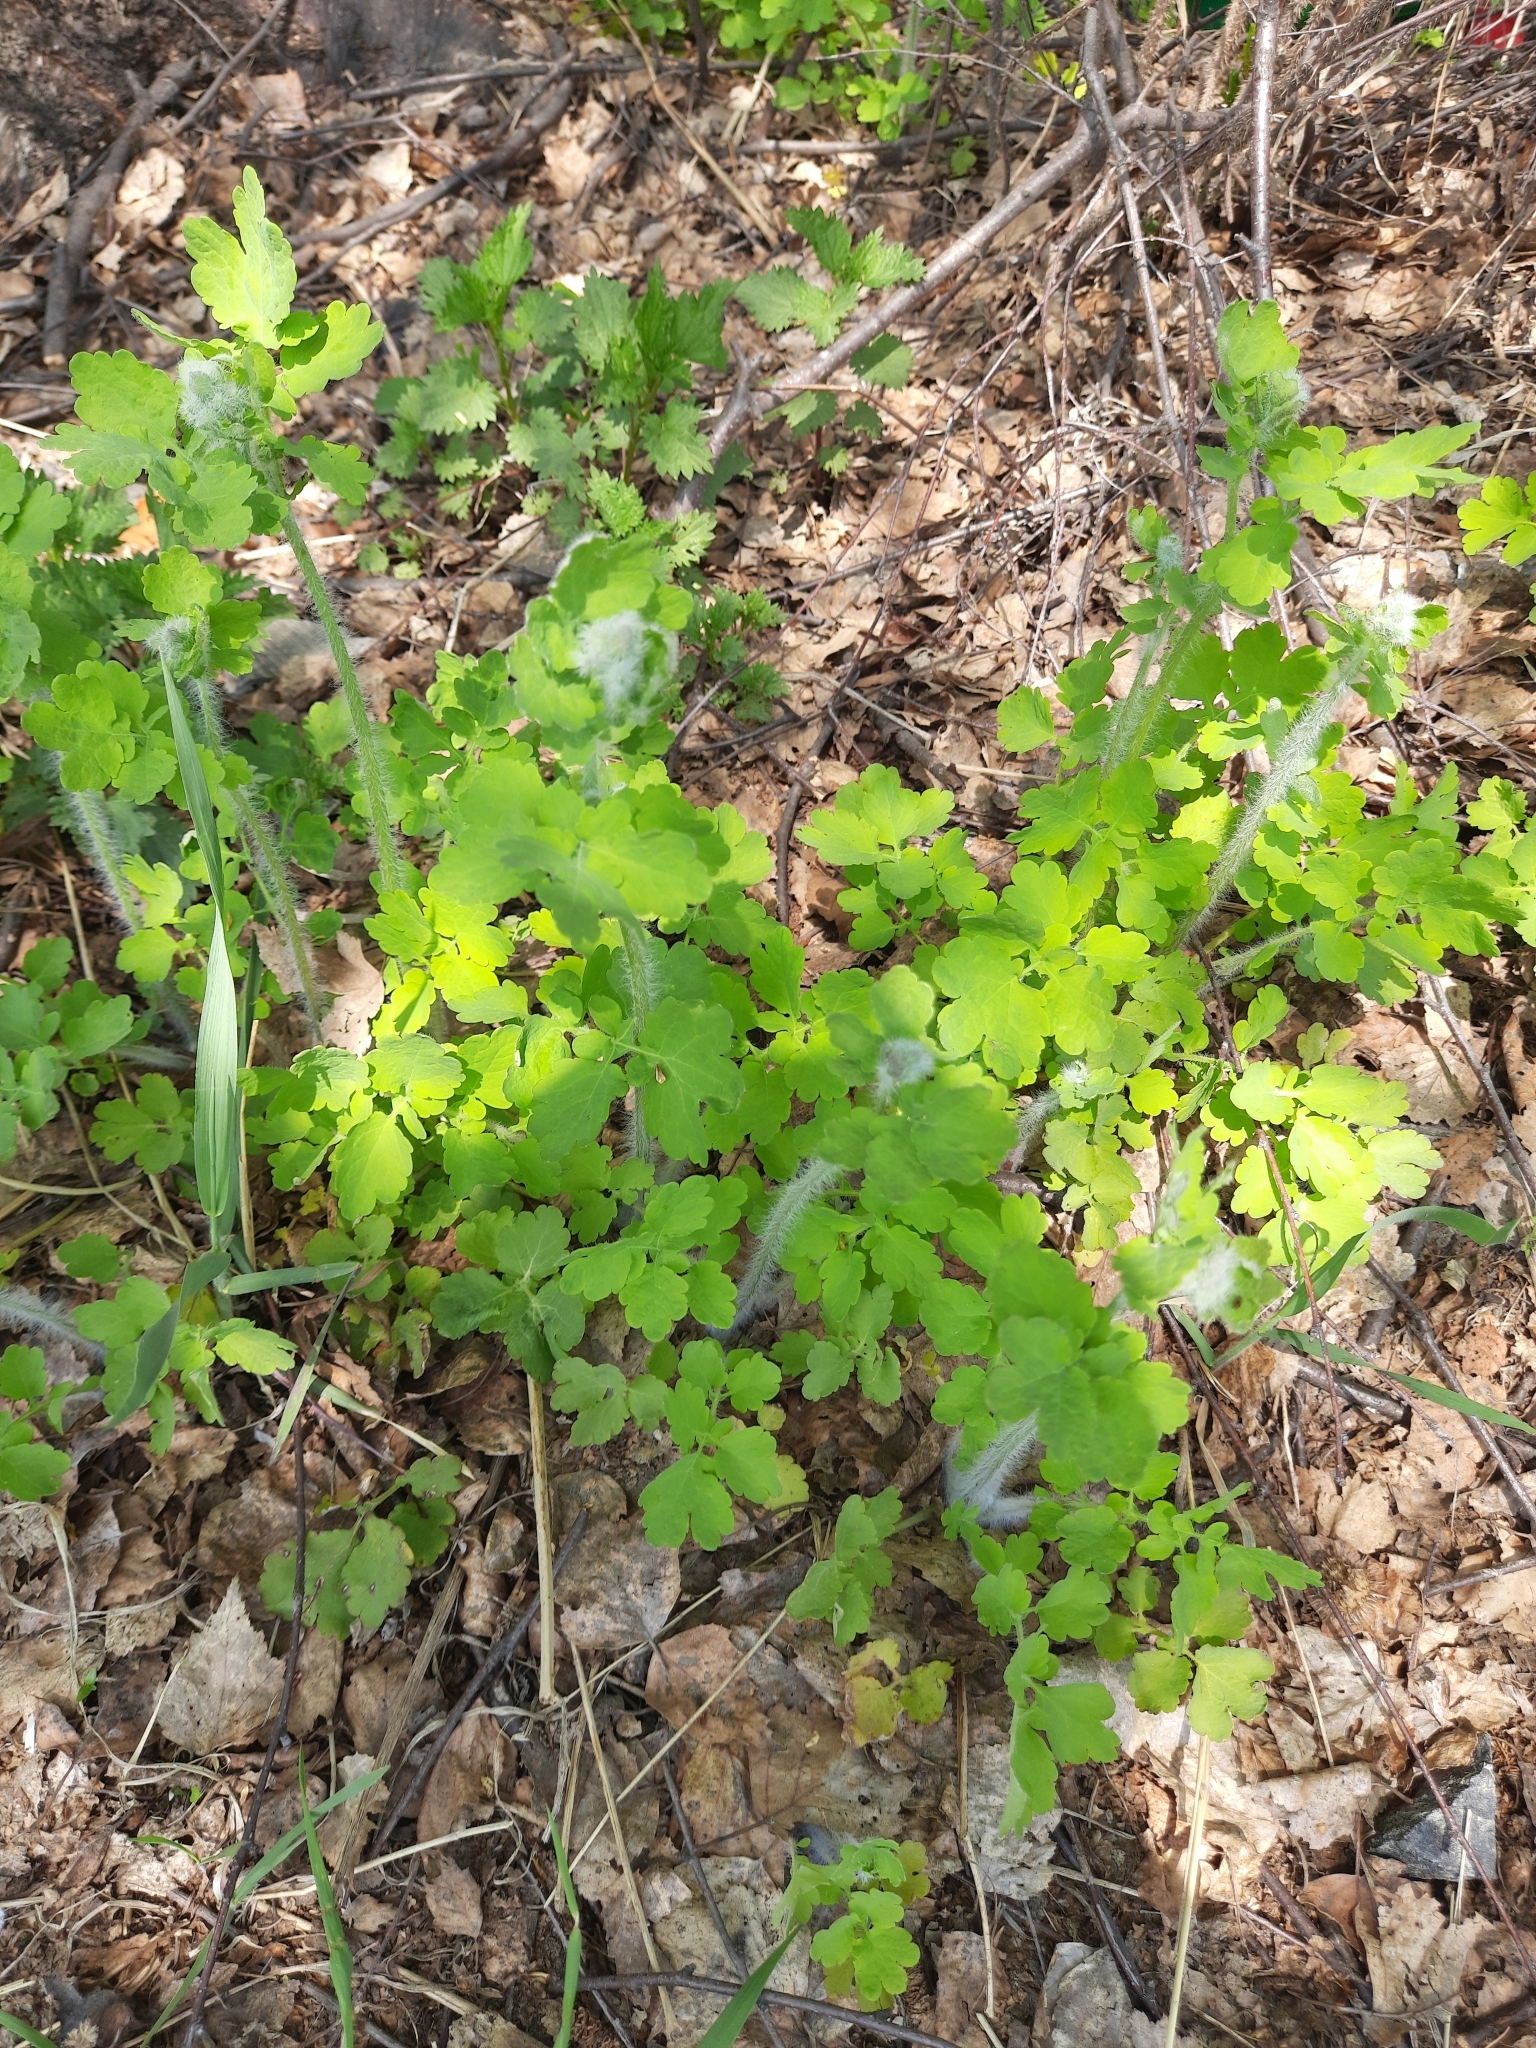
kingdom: Plantae
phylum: Tracheophyta
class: Magnoliopsida
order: Ranunculales
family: Papaveraceae
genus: Chelidonium
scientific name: Chelidonium majus
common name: Greater celandine
